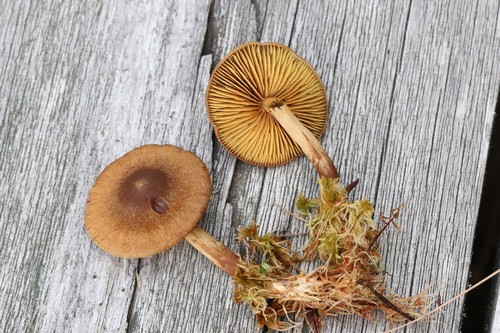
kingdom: Fungi
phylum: Basidiomycota
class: Agaricomycetes
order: Agaricales
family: Cortinariaceae
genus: Cortinarius
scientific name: Cortinarius chrysolitus
